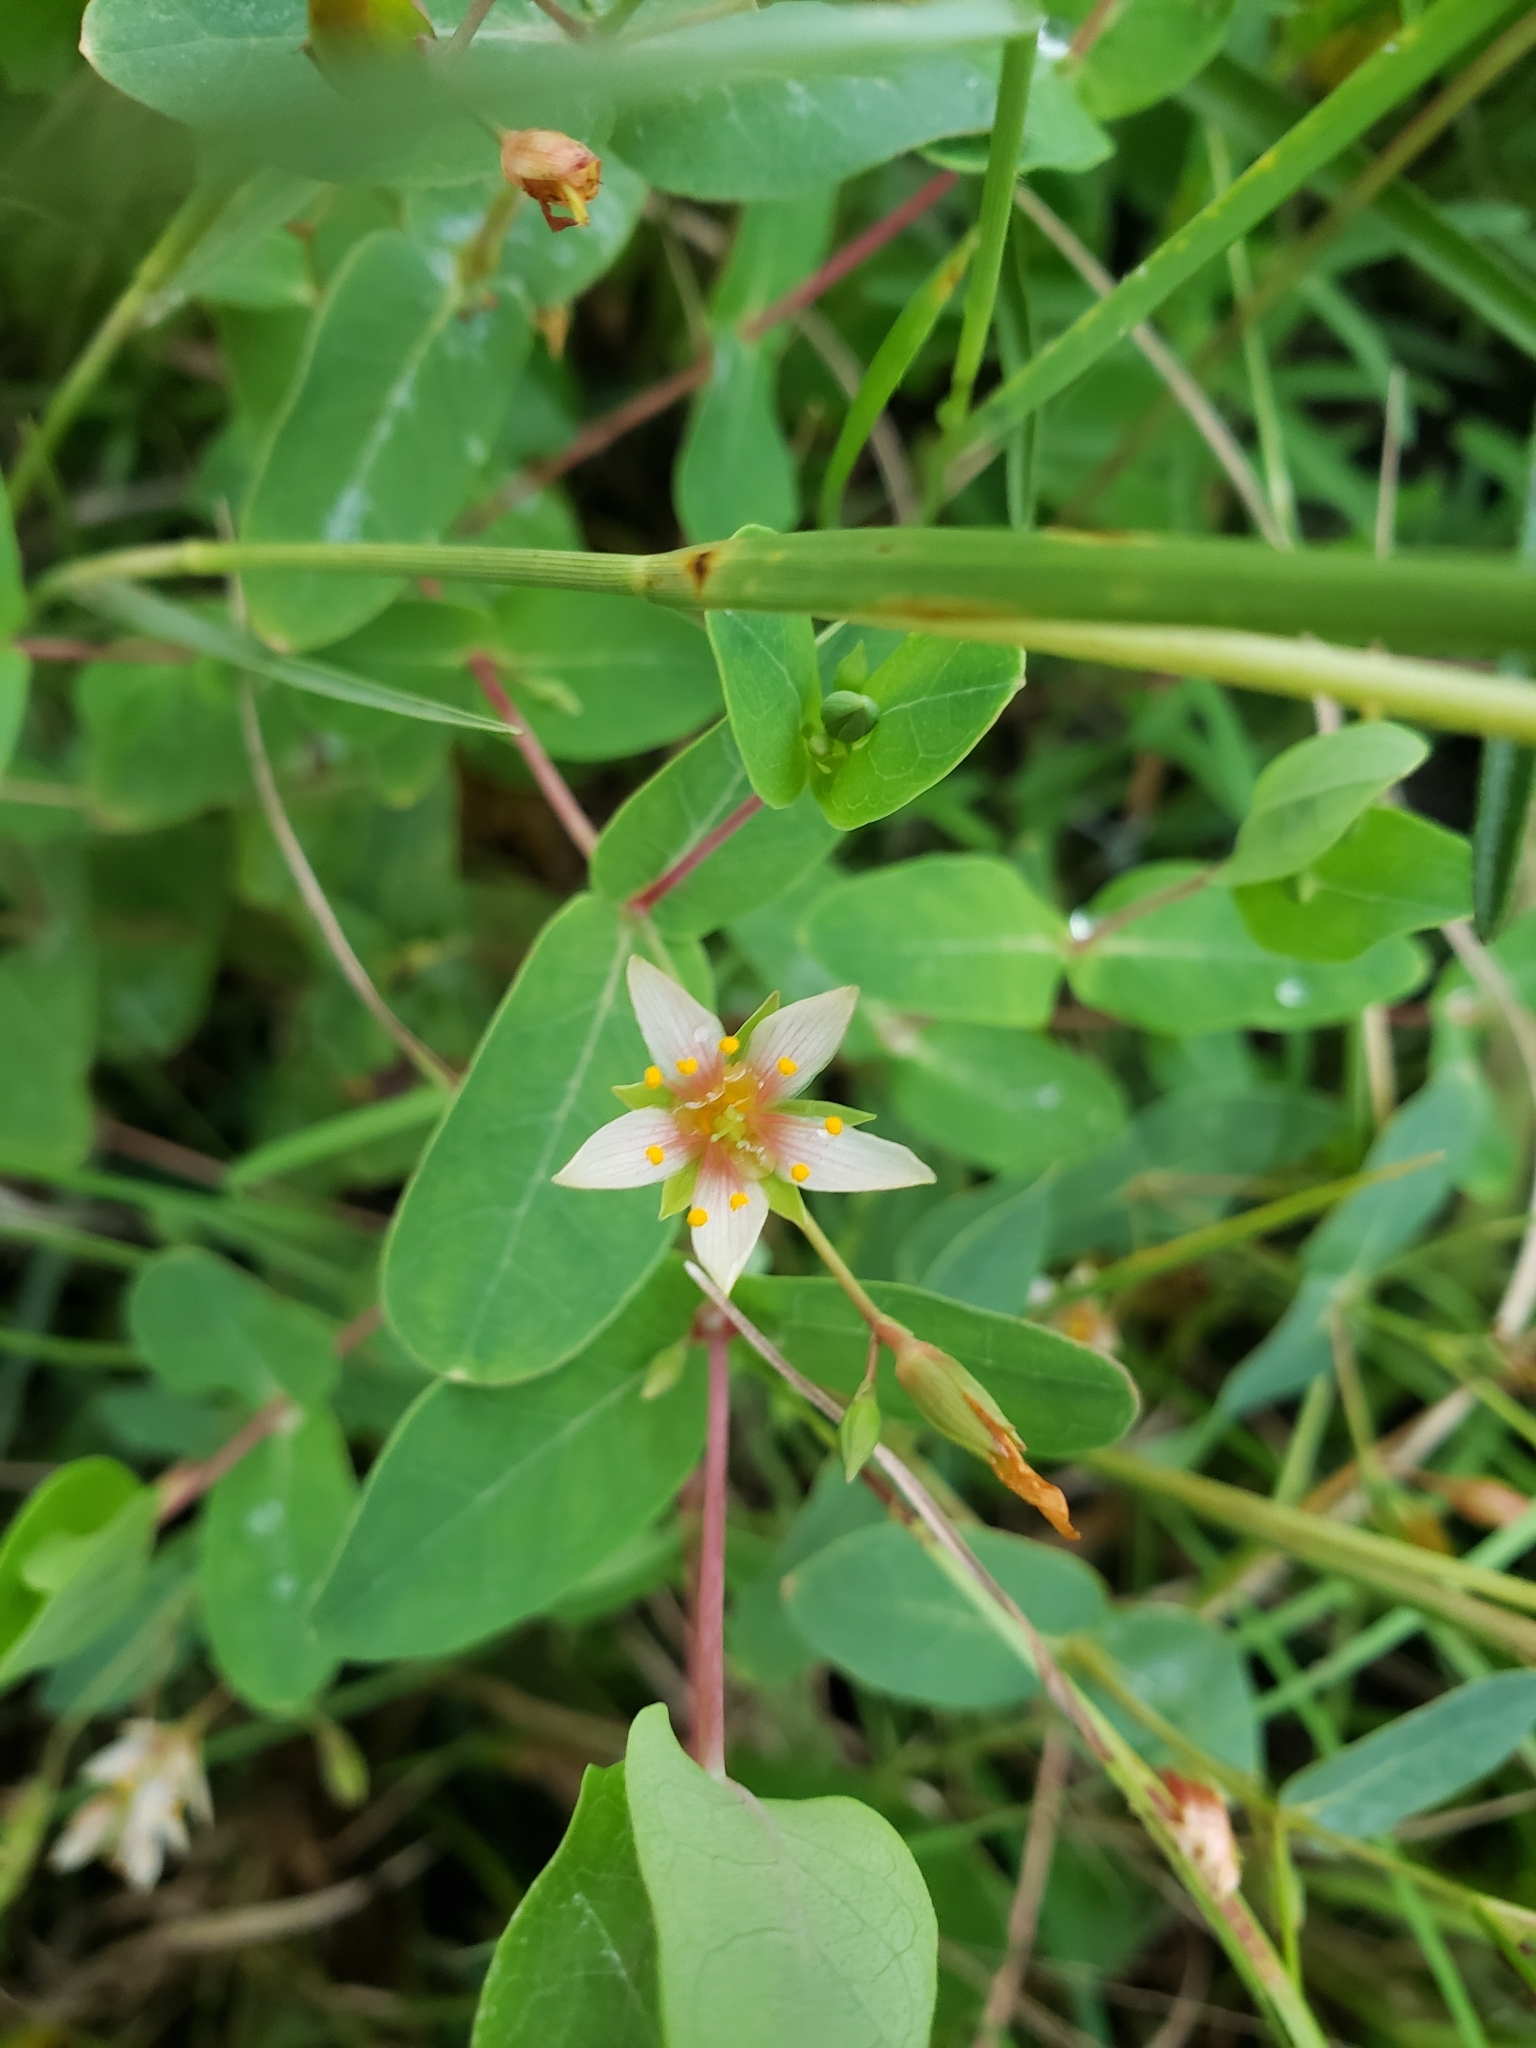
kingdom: Plantae
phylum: Tracheophyta
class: Magnoliopsida
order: Malpighiales
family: Hypericaceae
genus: Triadenum
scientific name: Triadenum virginicum
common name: Marsh st. john's-wort
